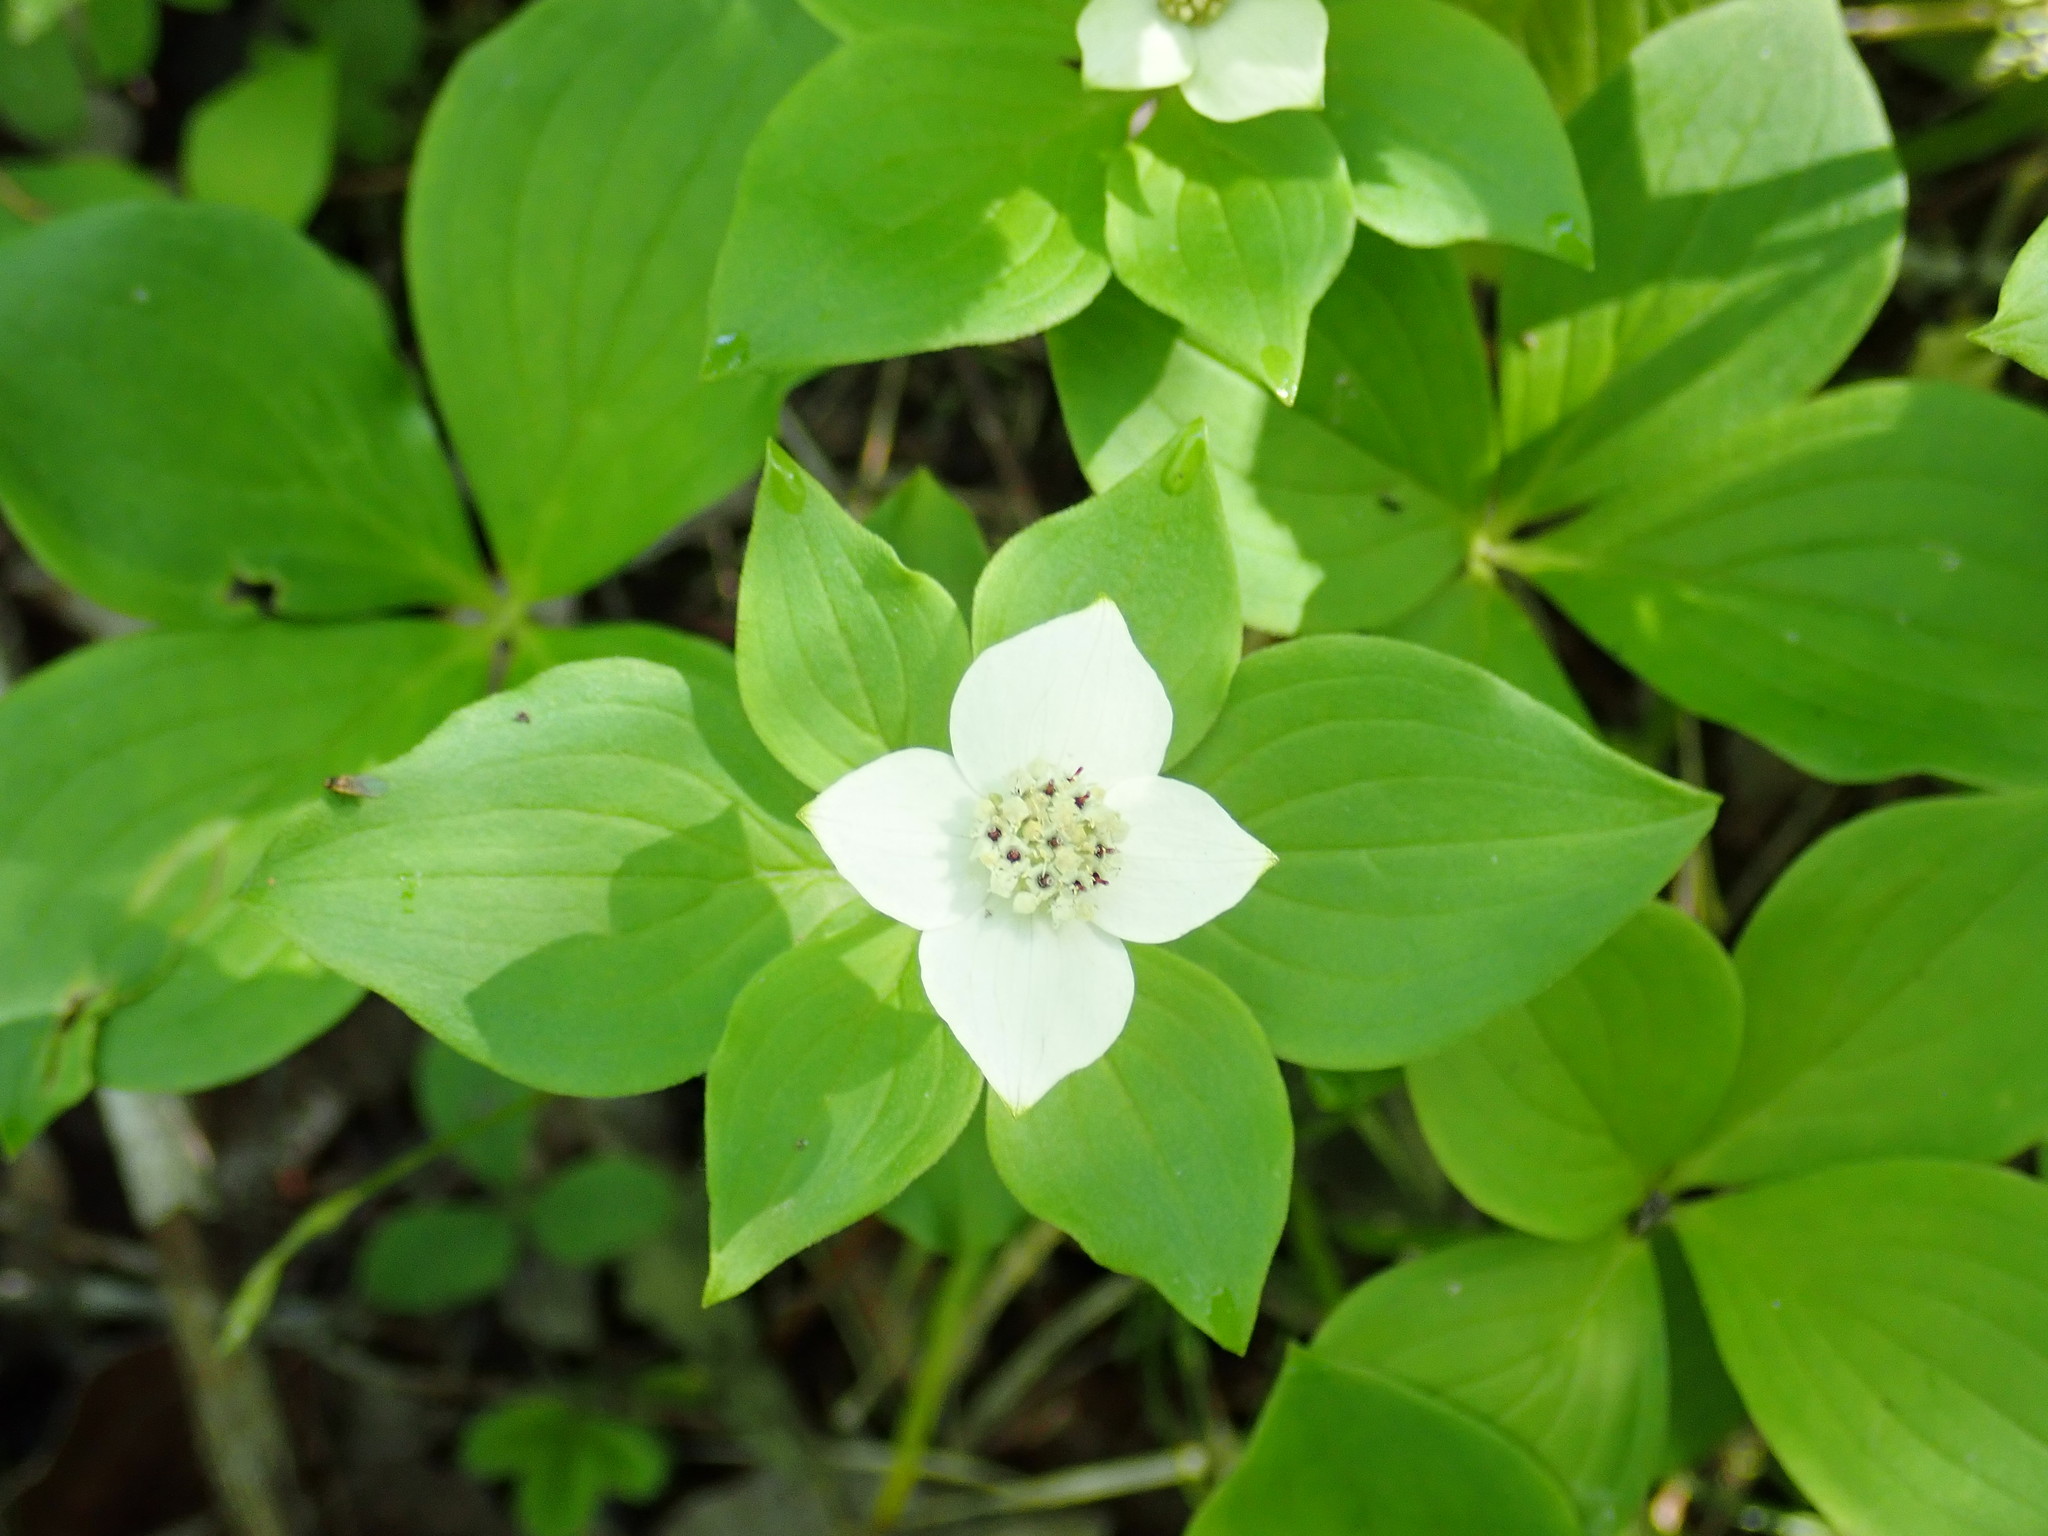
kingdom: Plantae
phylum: Tracheophyta
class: Magnoliopsida
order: Cornales
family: Cornaceae
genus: Cornus
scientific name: Cornus canadensis
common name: Creeping dogwood
